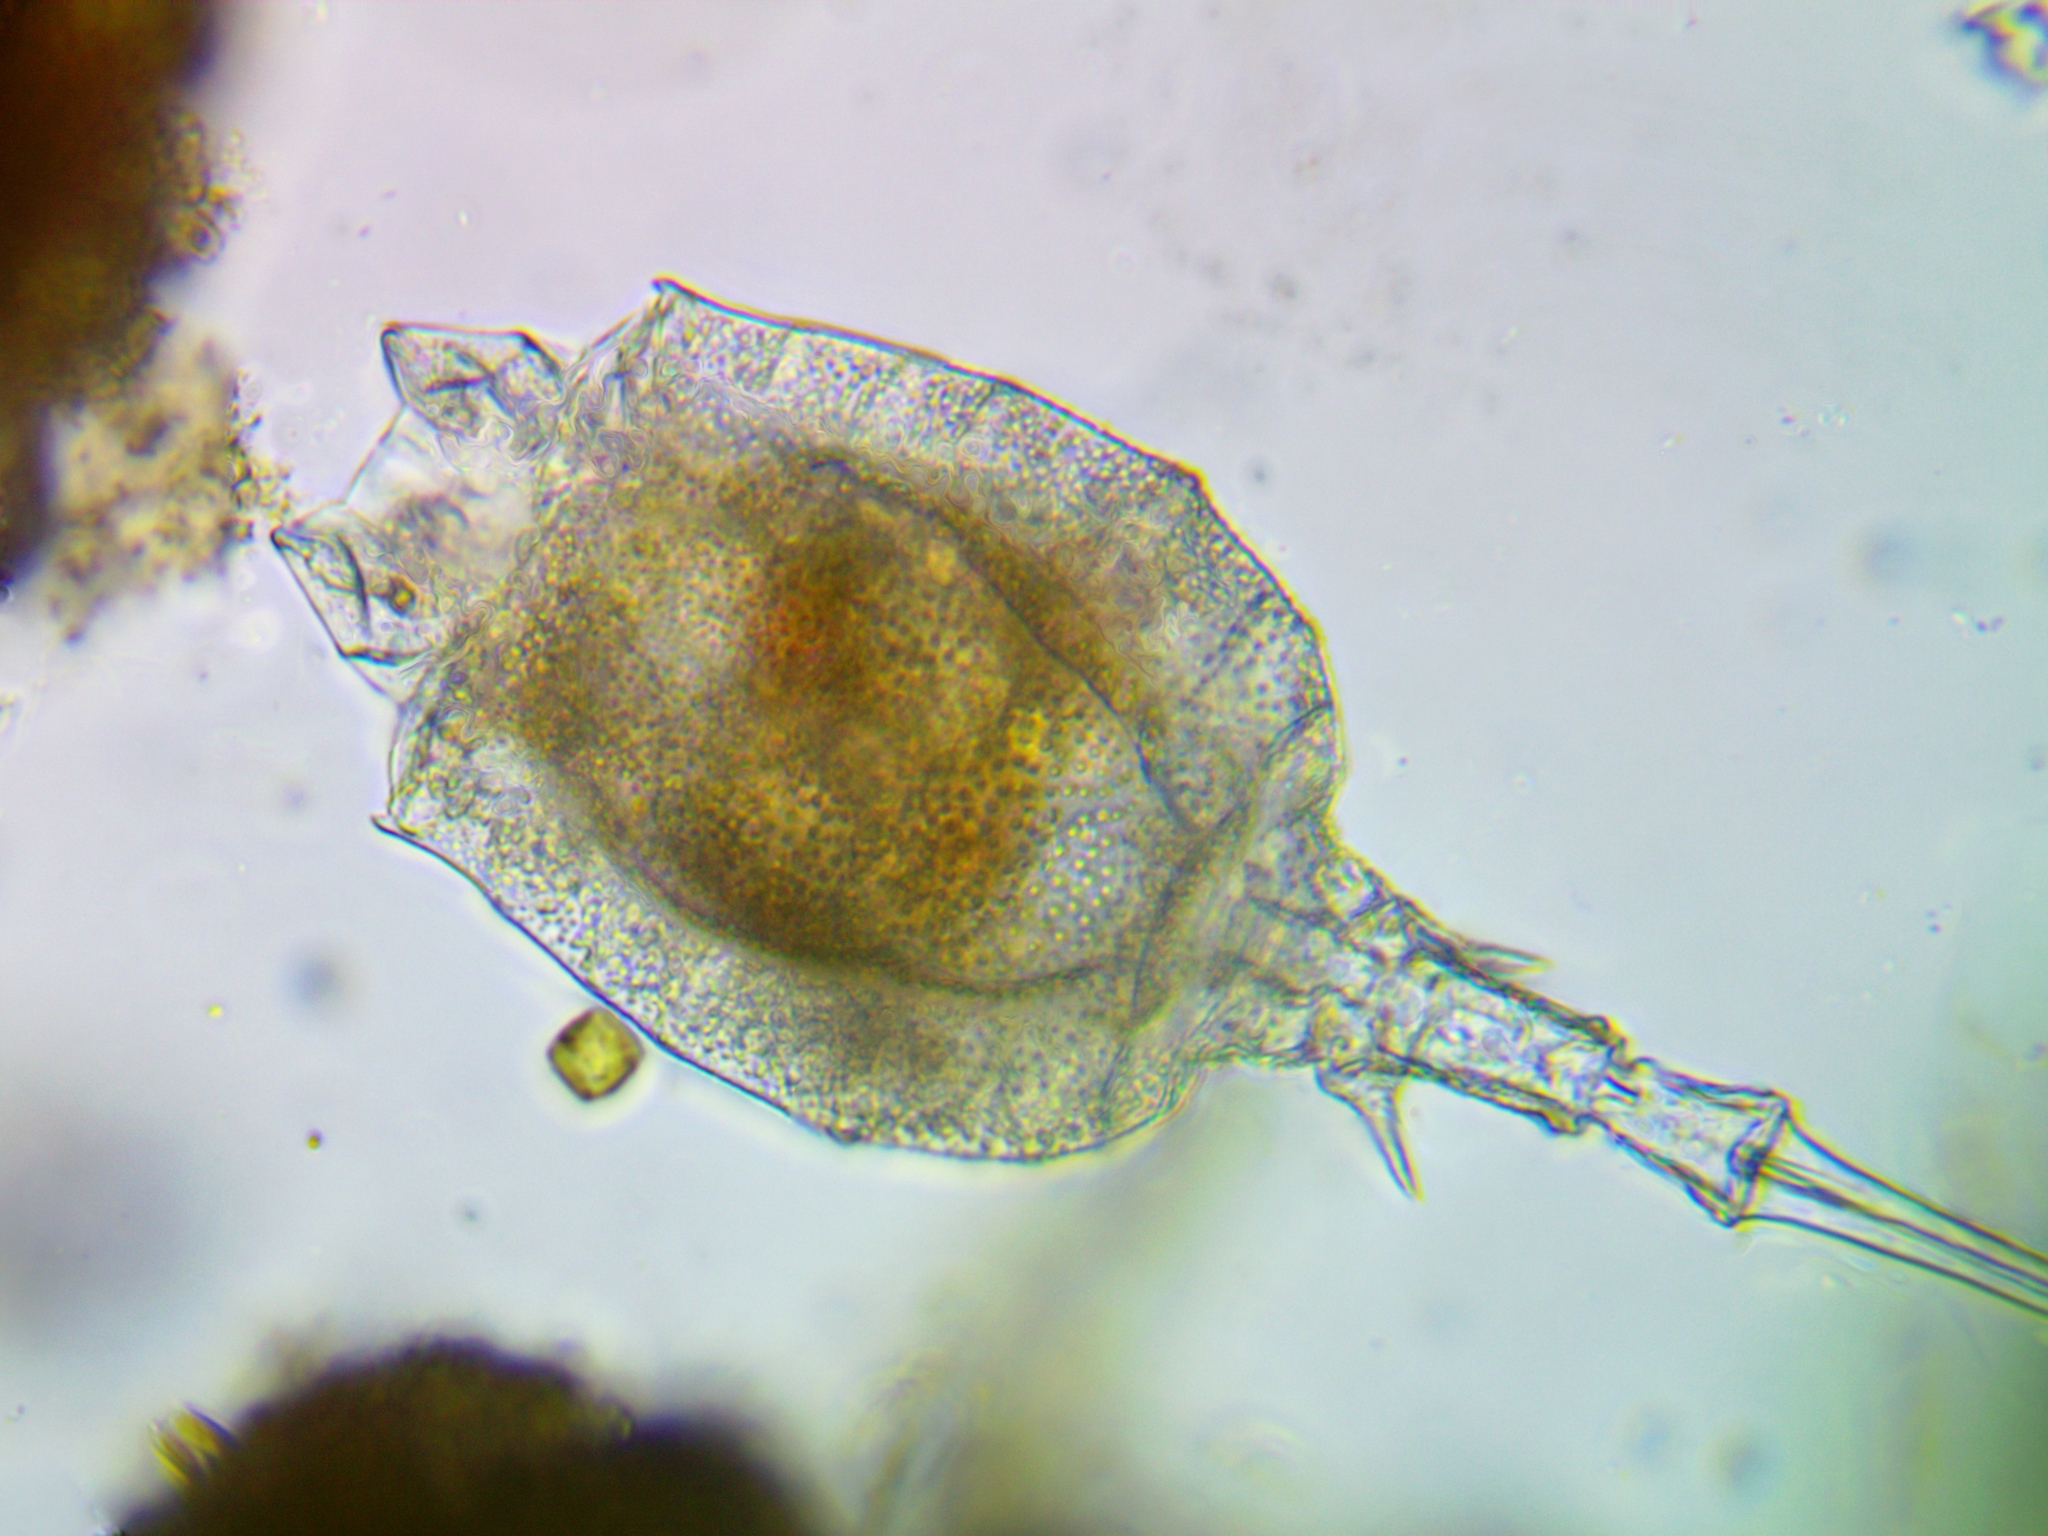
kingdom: Animalia
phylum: Rotifera
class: Eurotatoria
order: Ploima
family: Trichotriidae
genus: Trichotria
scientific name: Trichotria truncata
